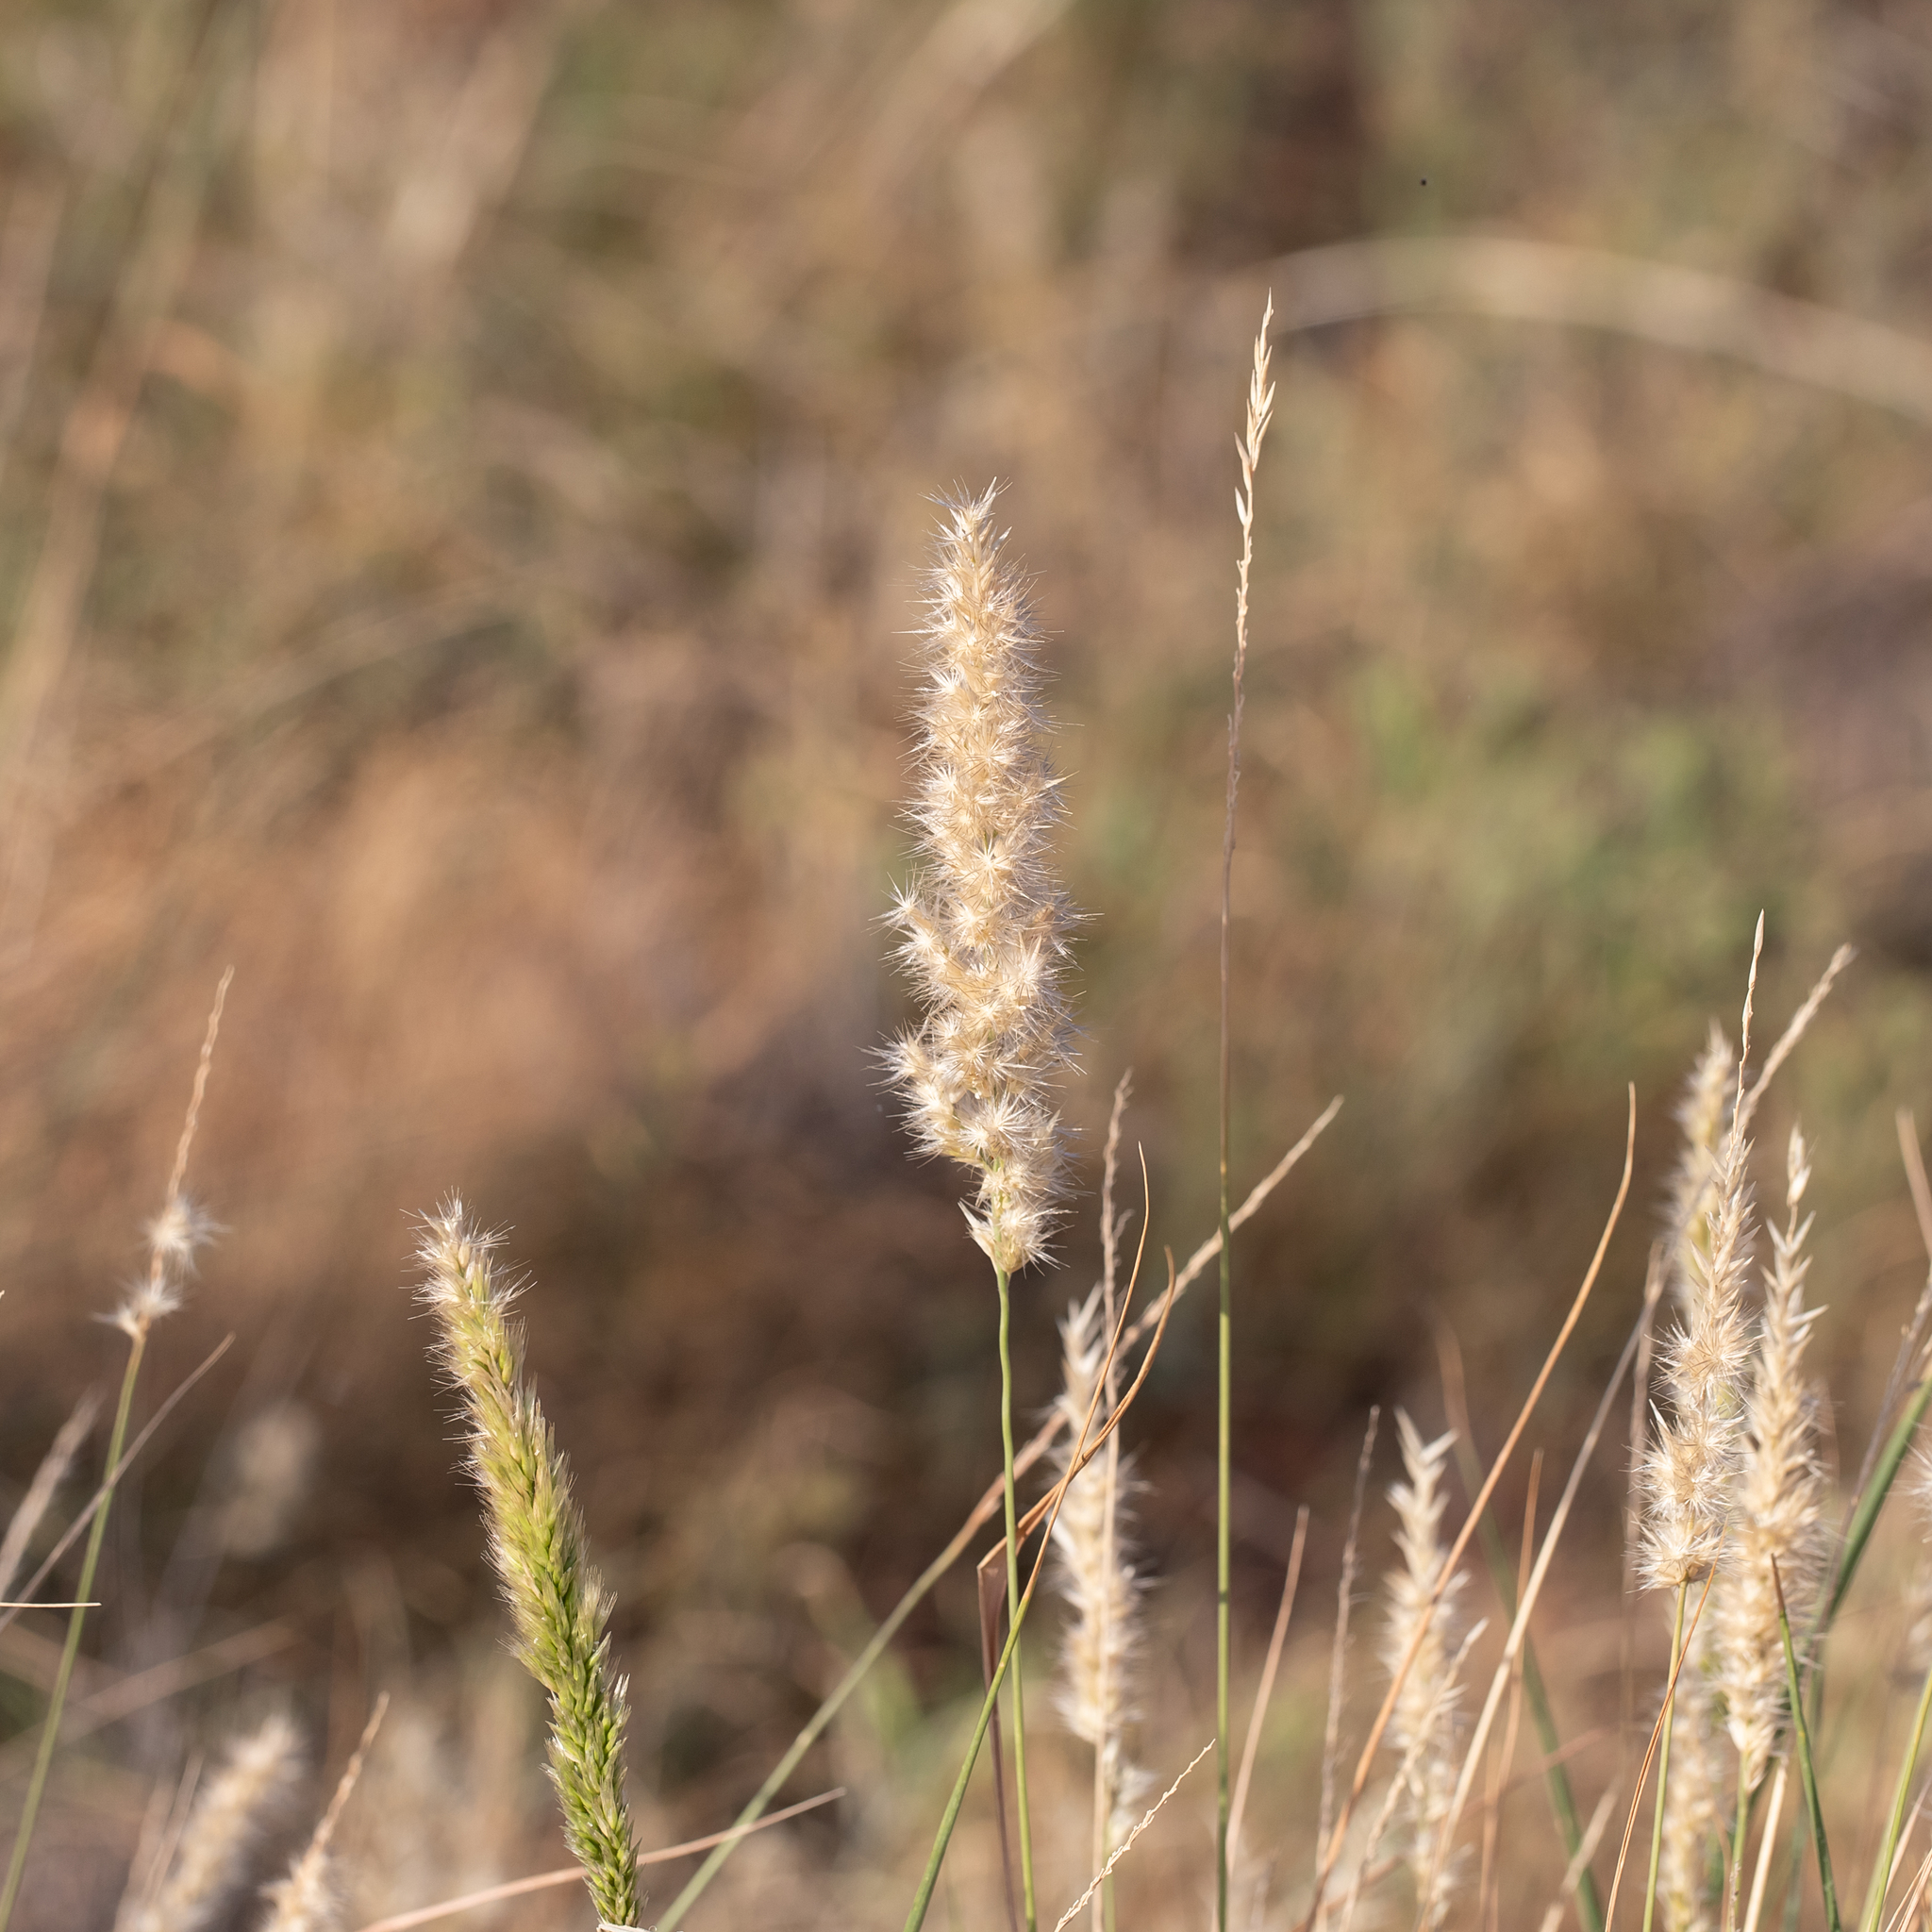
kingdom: Plantae
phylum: Tracheophyta
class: Liliopsida
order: Poales
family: Poaceae
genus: Enneapogon
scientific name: Enneapogon polyphyllus
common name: Leafy nineawn
